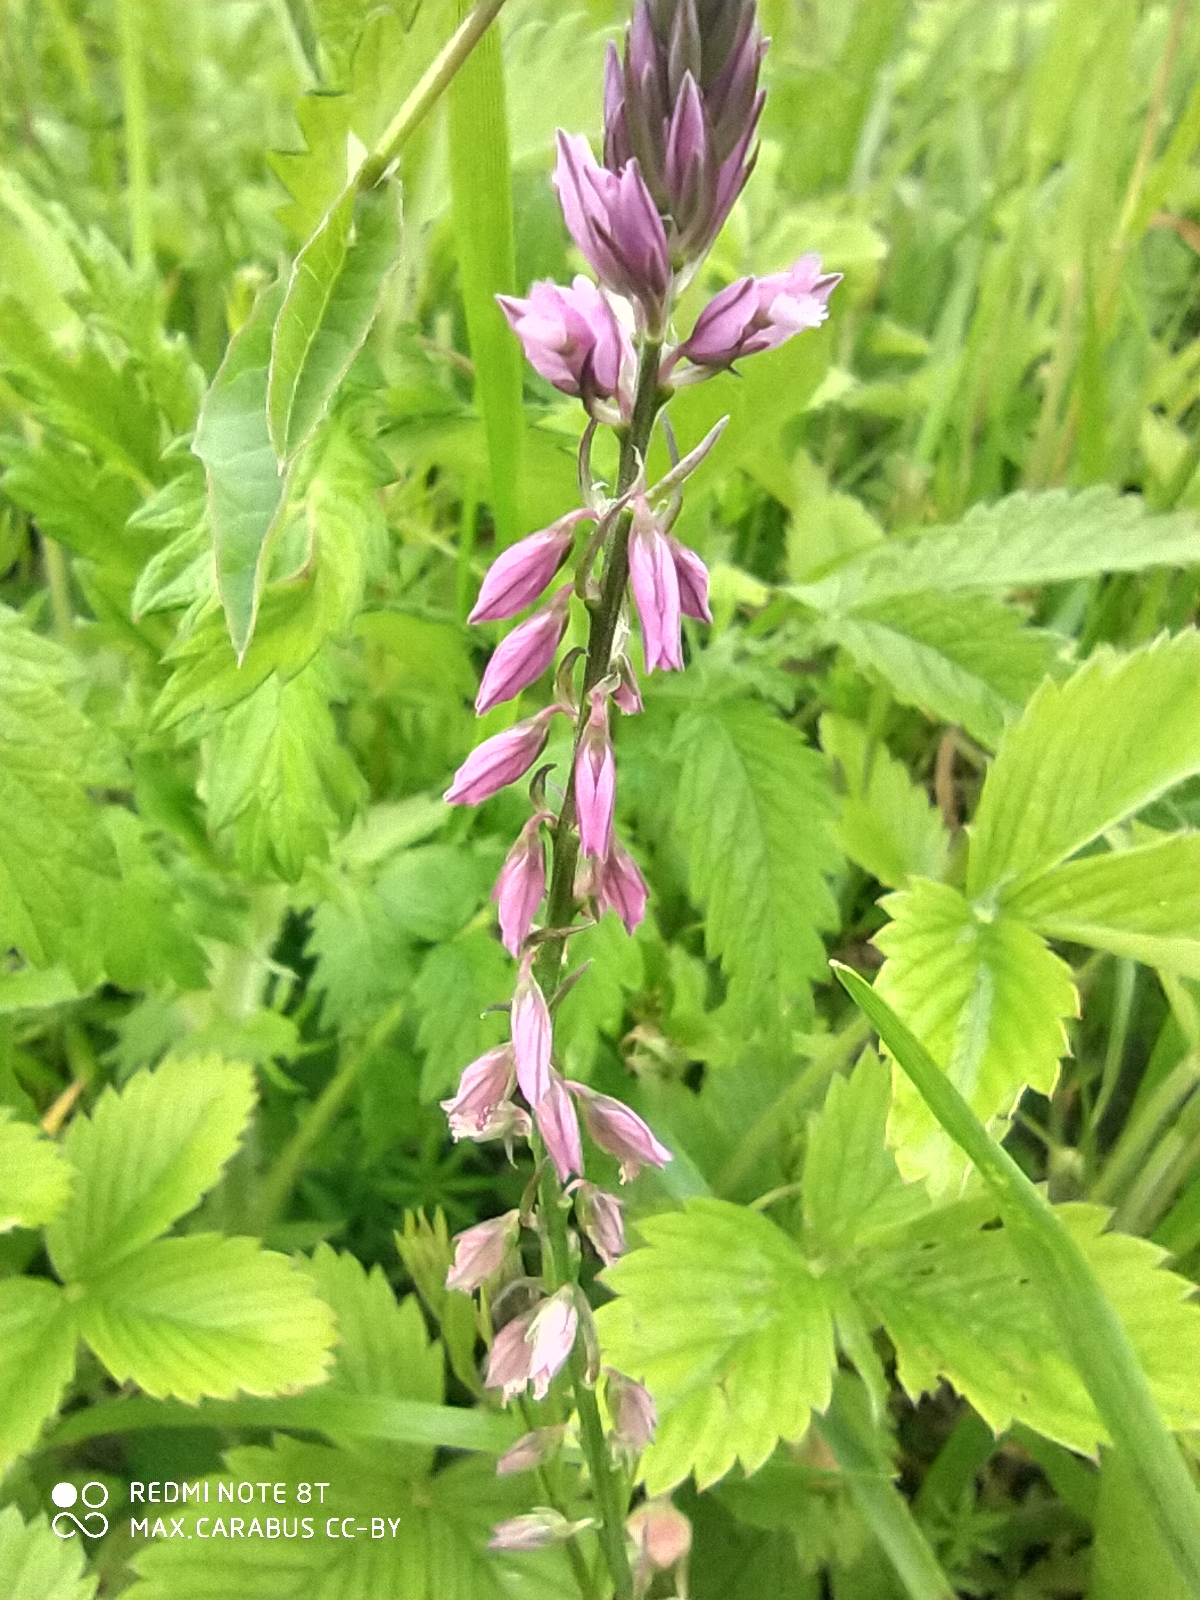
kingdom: Plantae
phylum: Tracheophyta
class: Magnoliopsida
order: Fabales
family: Polygalaceae
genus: Polygala
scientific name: Polygala comosa
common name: Tufted milkwort
